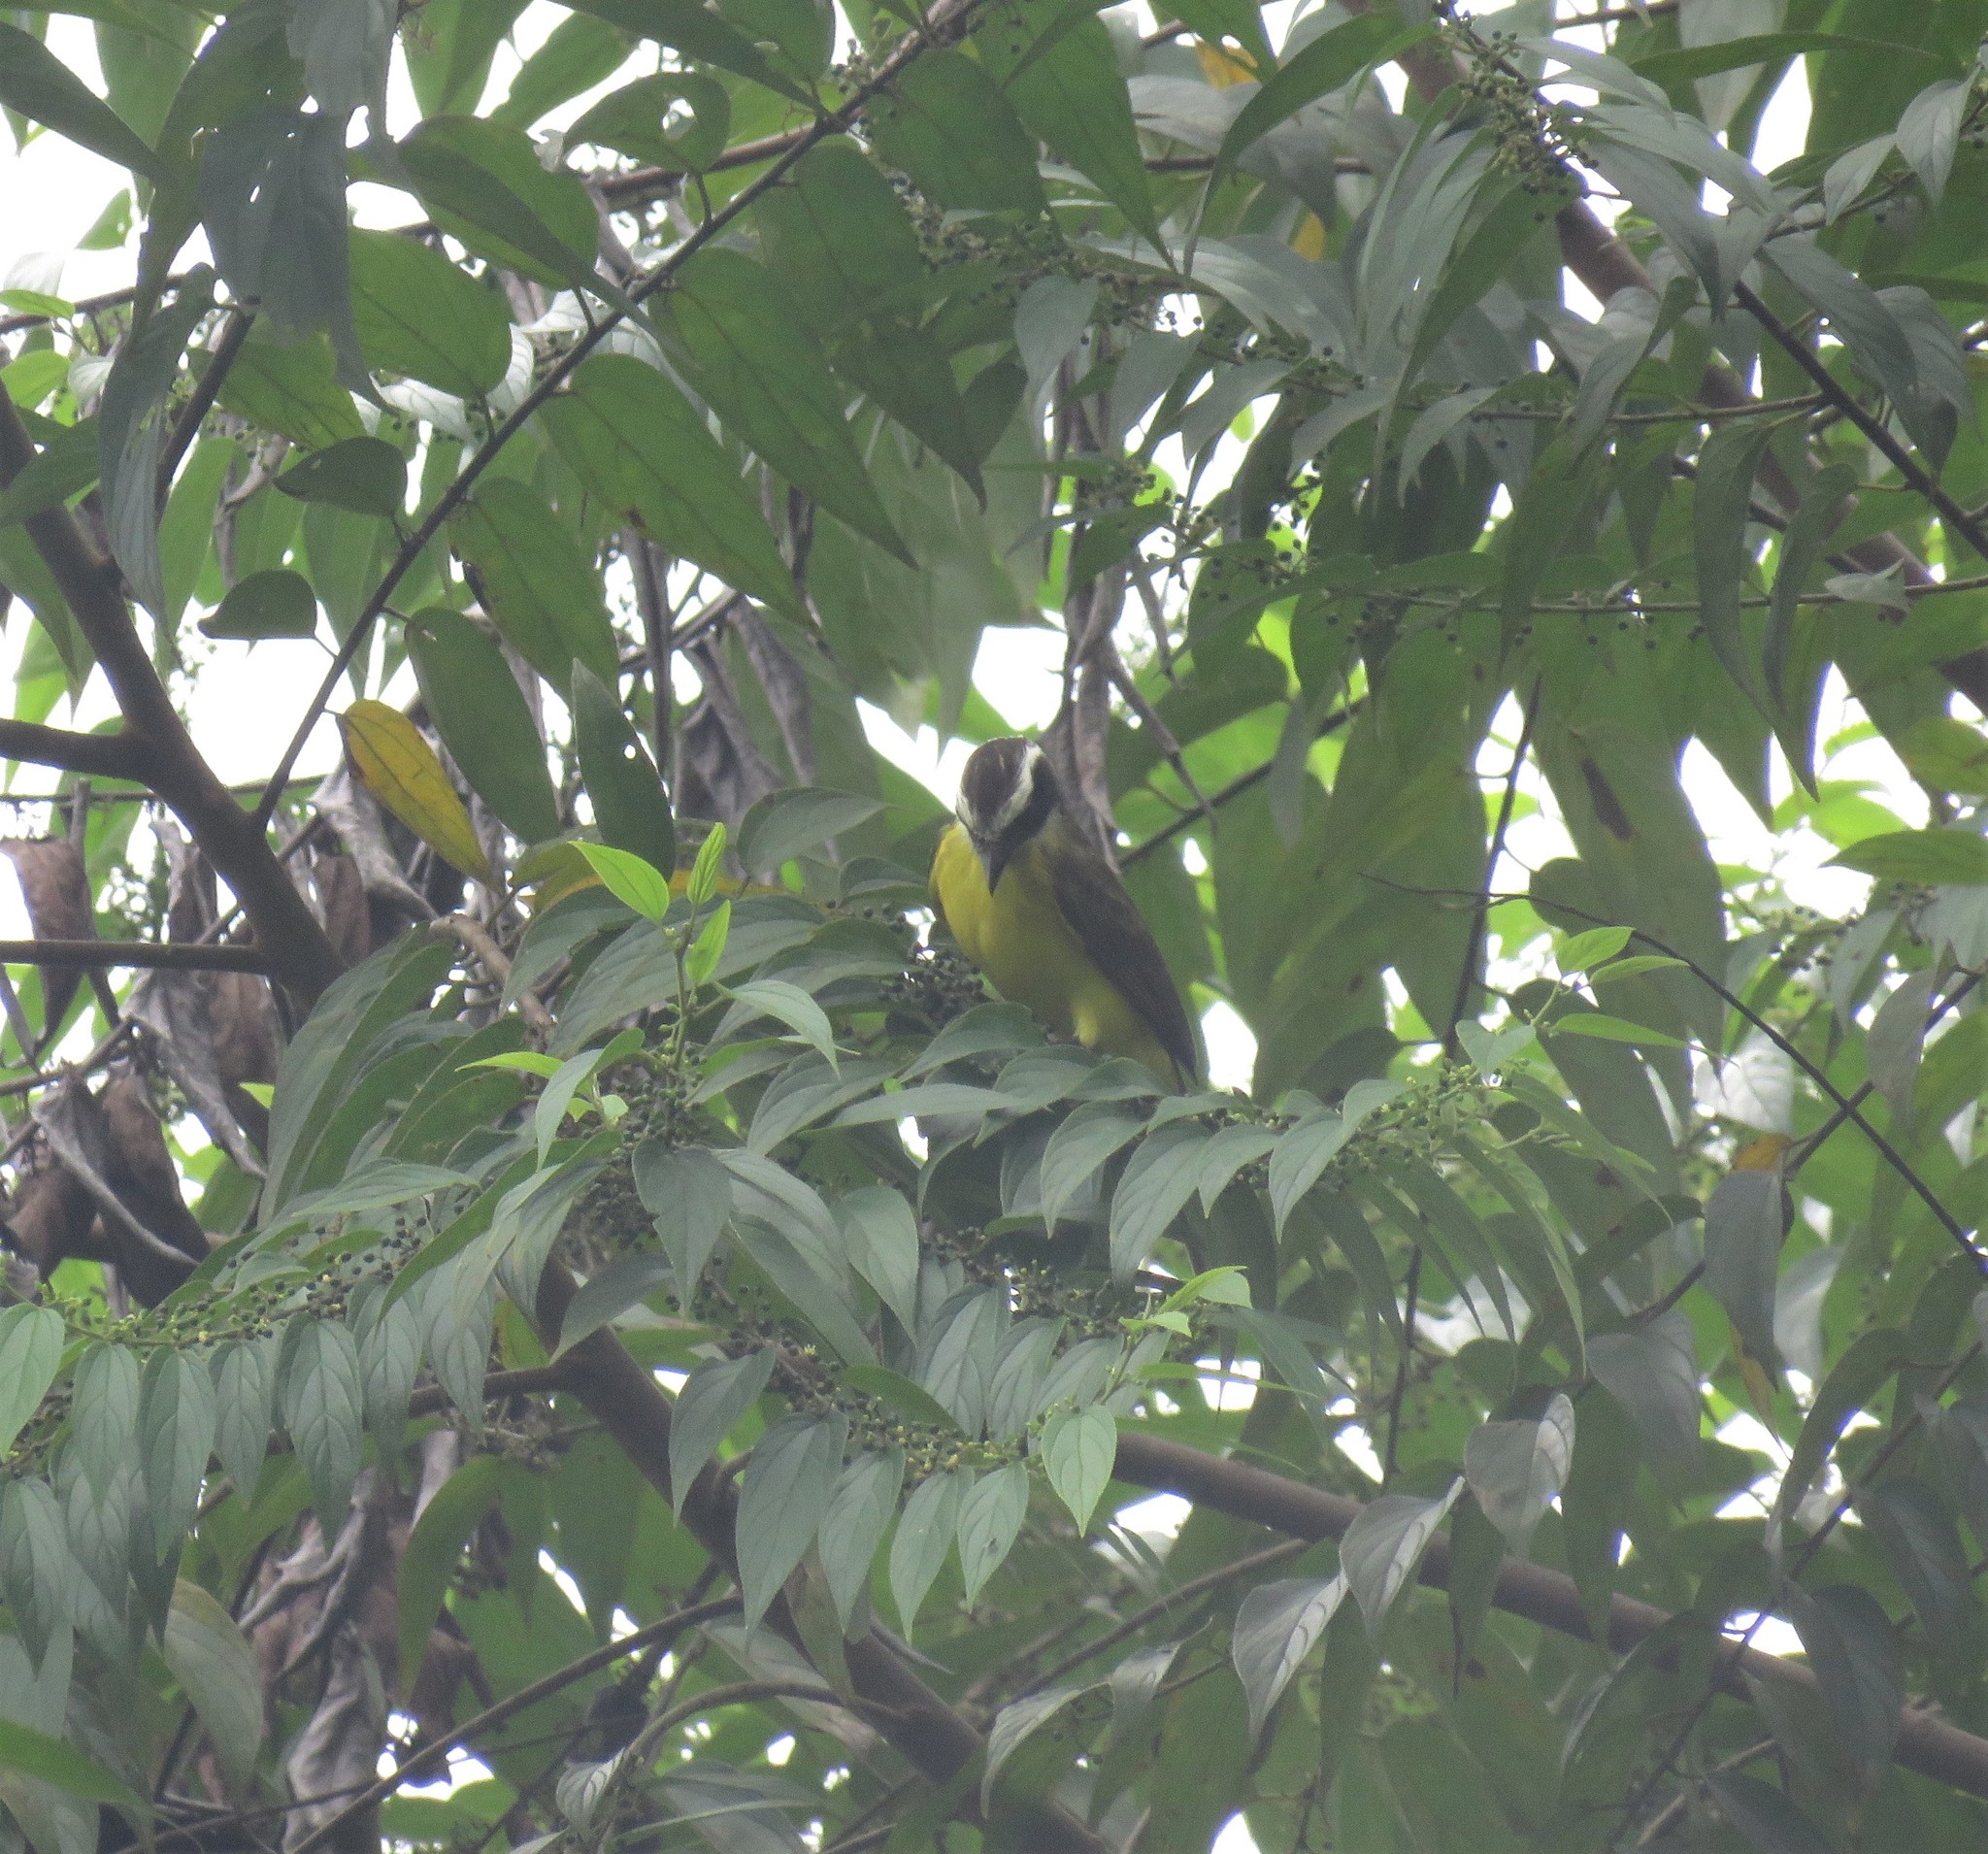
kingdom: Animalia
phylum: Chordata
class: Aves
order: Passeriformes
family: Tyrannidae
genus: Myiozetetes
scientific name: Myiozetetes cayanensis
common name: Rusty-margined flycatcher
